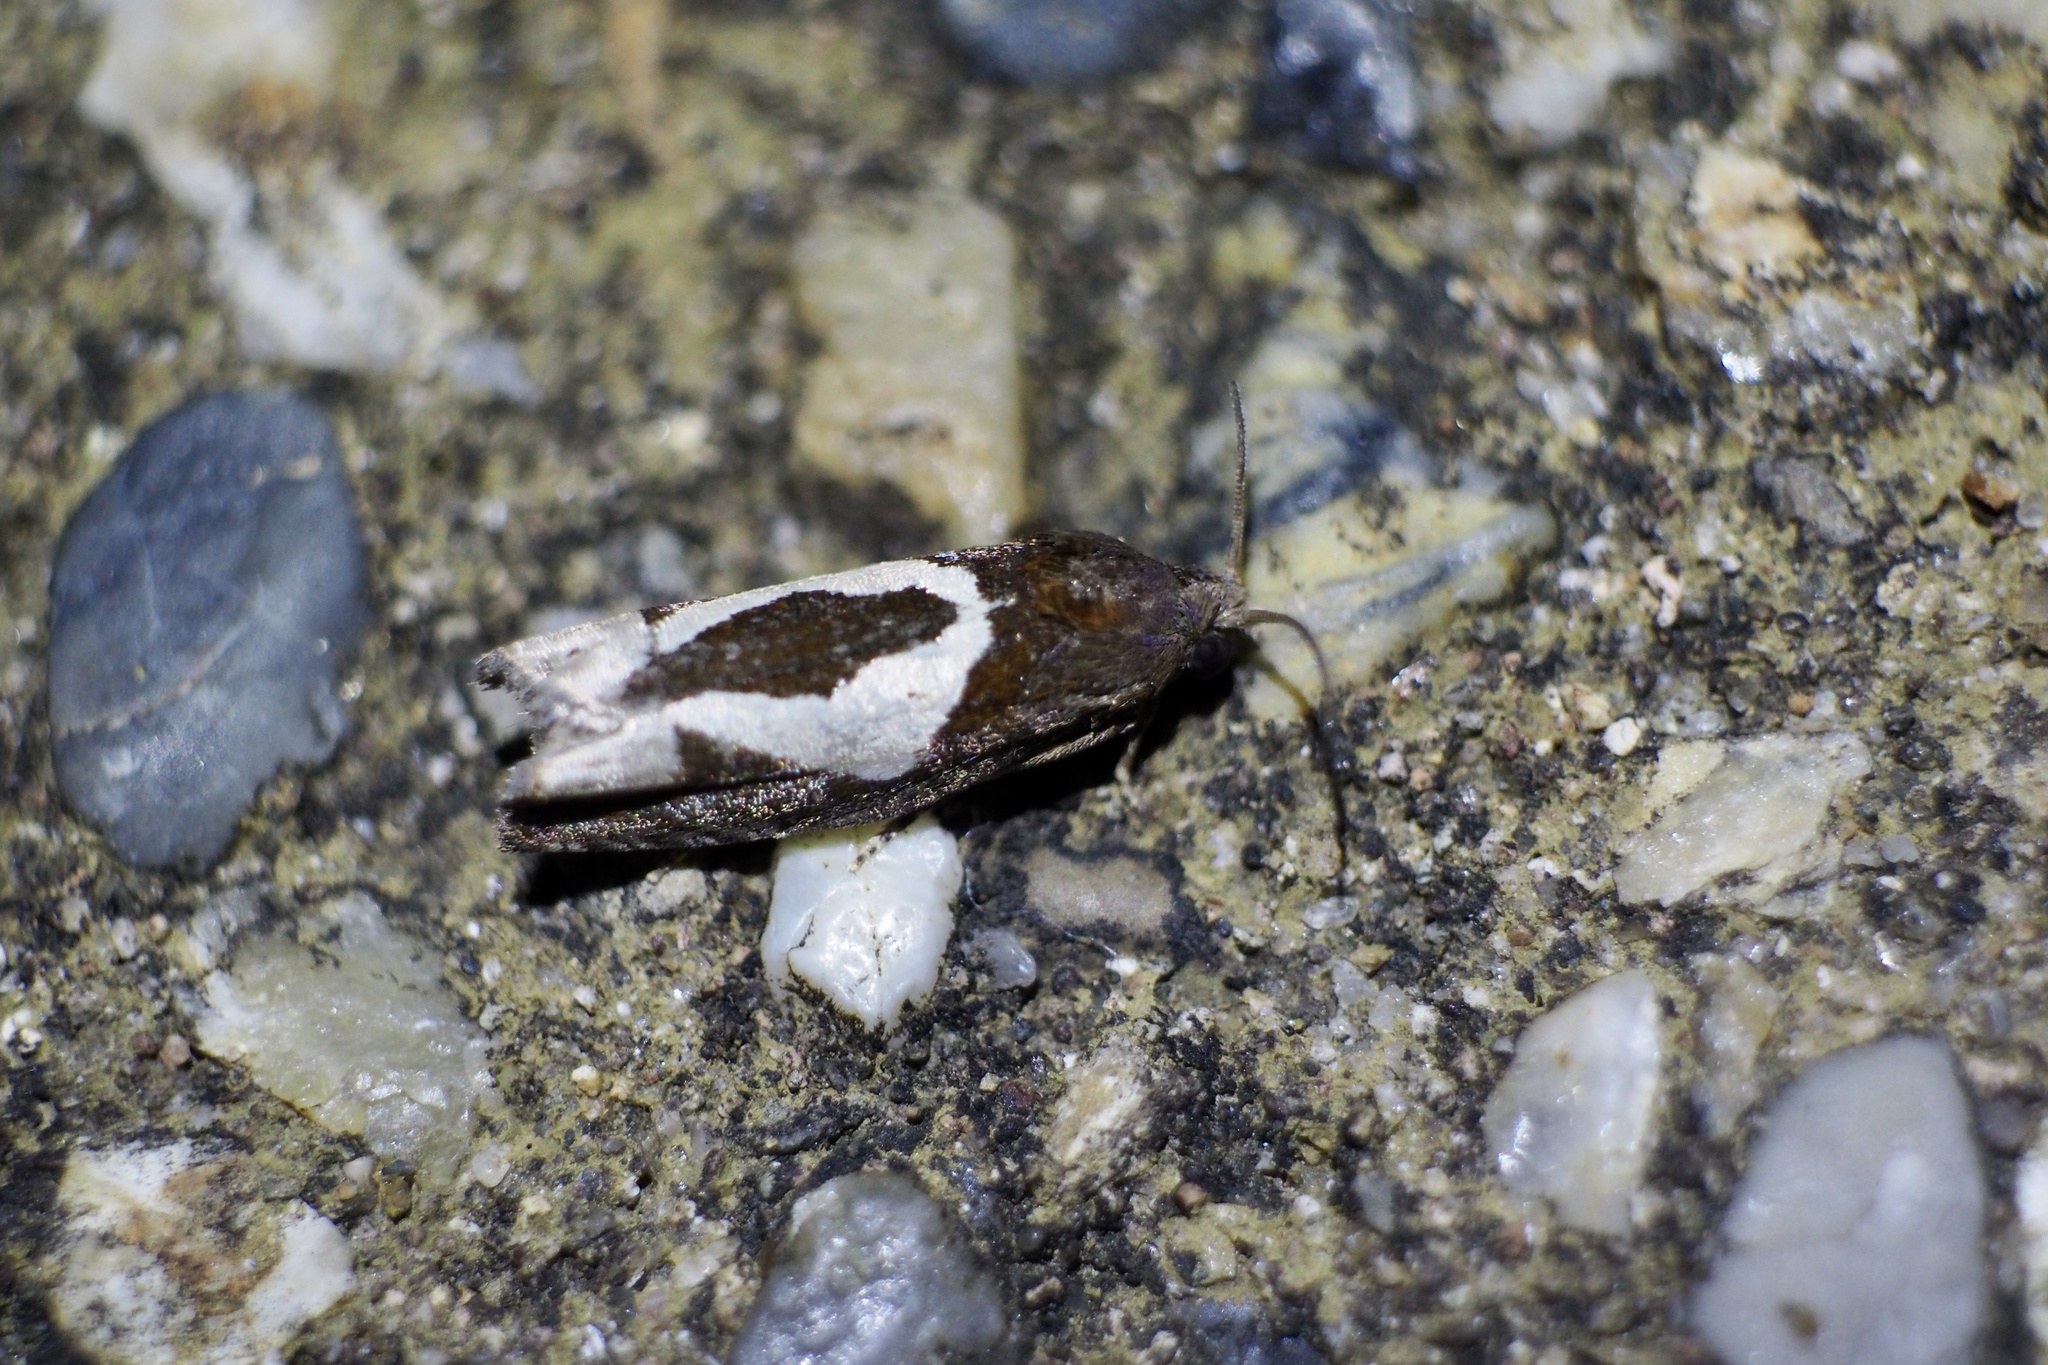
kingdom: Animalia
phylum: Arthropoda
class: Insecta
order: Lepidoptera
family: Tortricidae
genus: Epiblema
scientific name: Epiblema foenella
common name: White-foot bell
